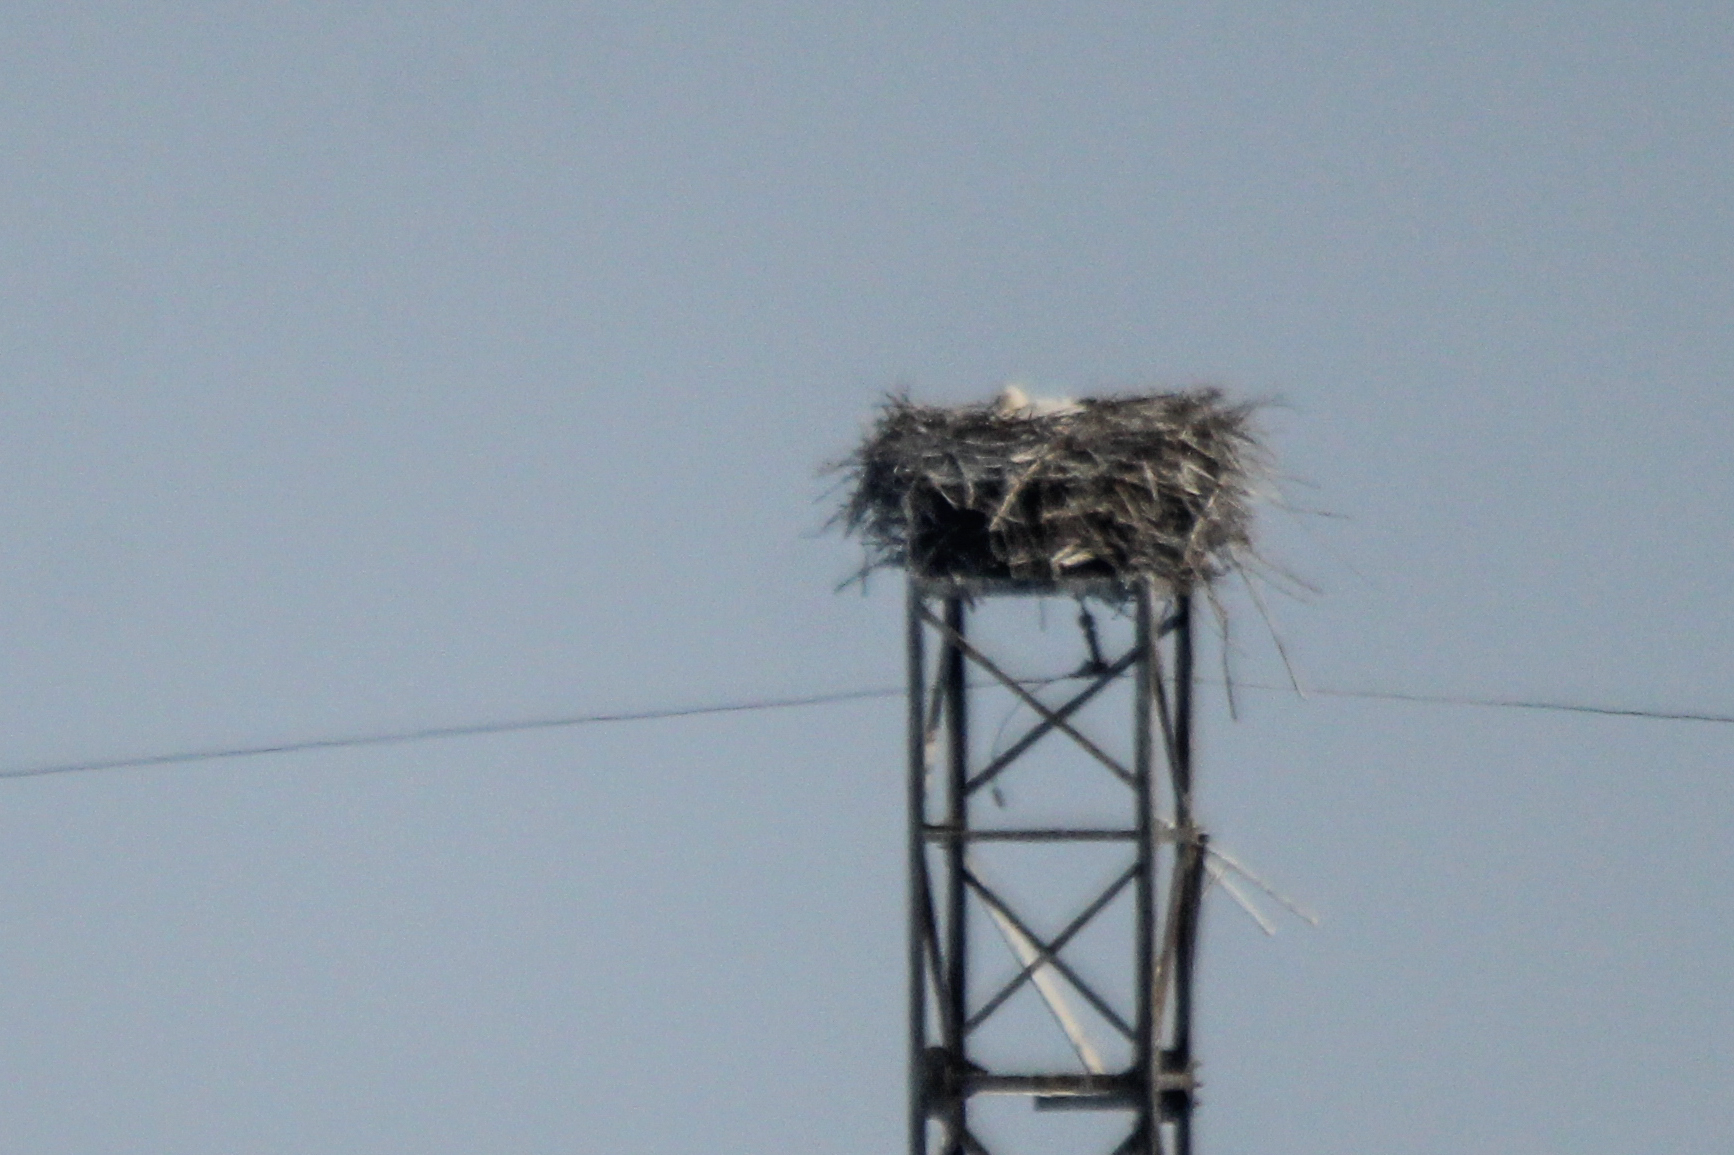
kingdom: Animalia
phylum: Chordata
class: Aves
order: Ciconiiformes
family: Ciconiidae
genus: Ciconia
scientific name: Ciconia boyciana
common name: Oriental stork
